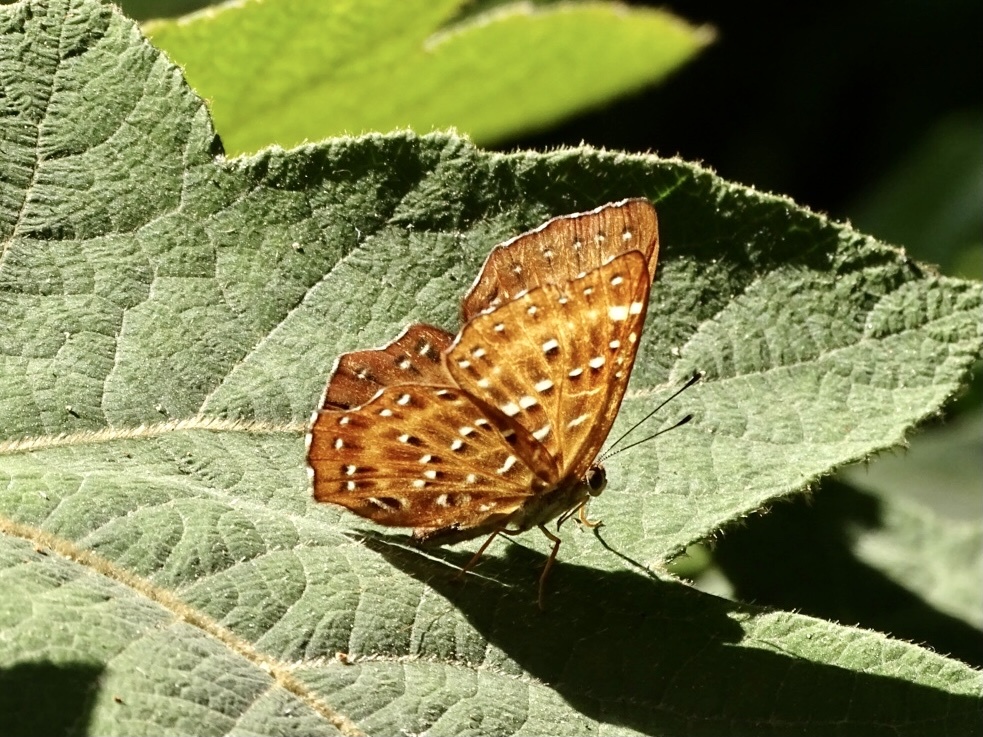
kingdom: Animalia
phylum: Arthropoda
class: Insecta
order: Lepidoptera
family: Riodinidae
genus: Zemeros
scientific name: Zemeros flegyas
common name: Punchinello
